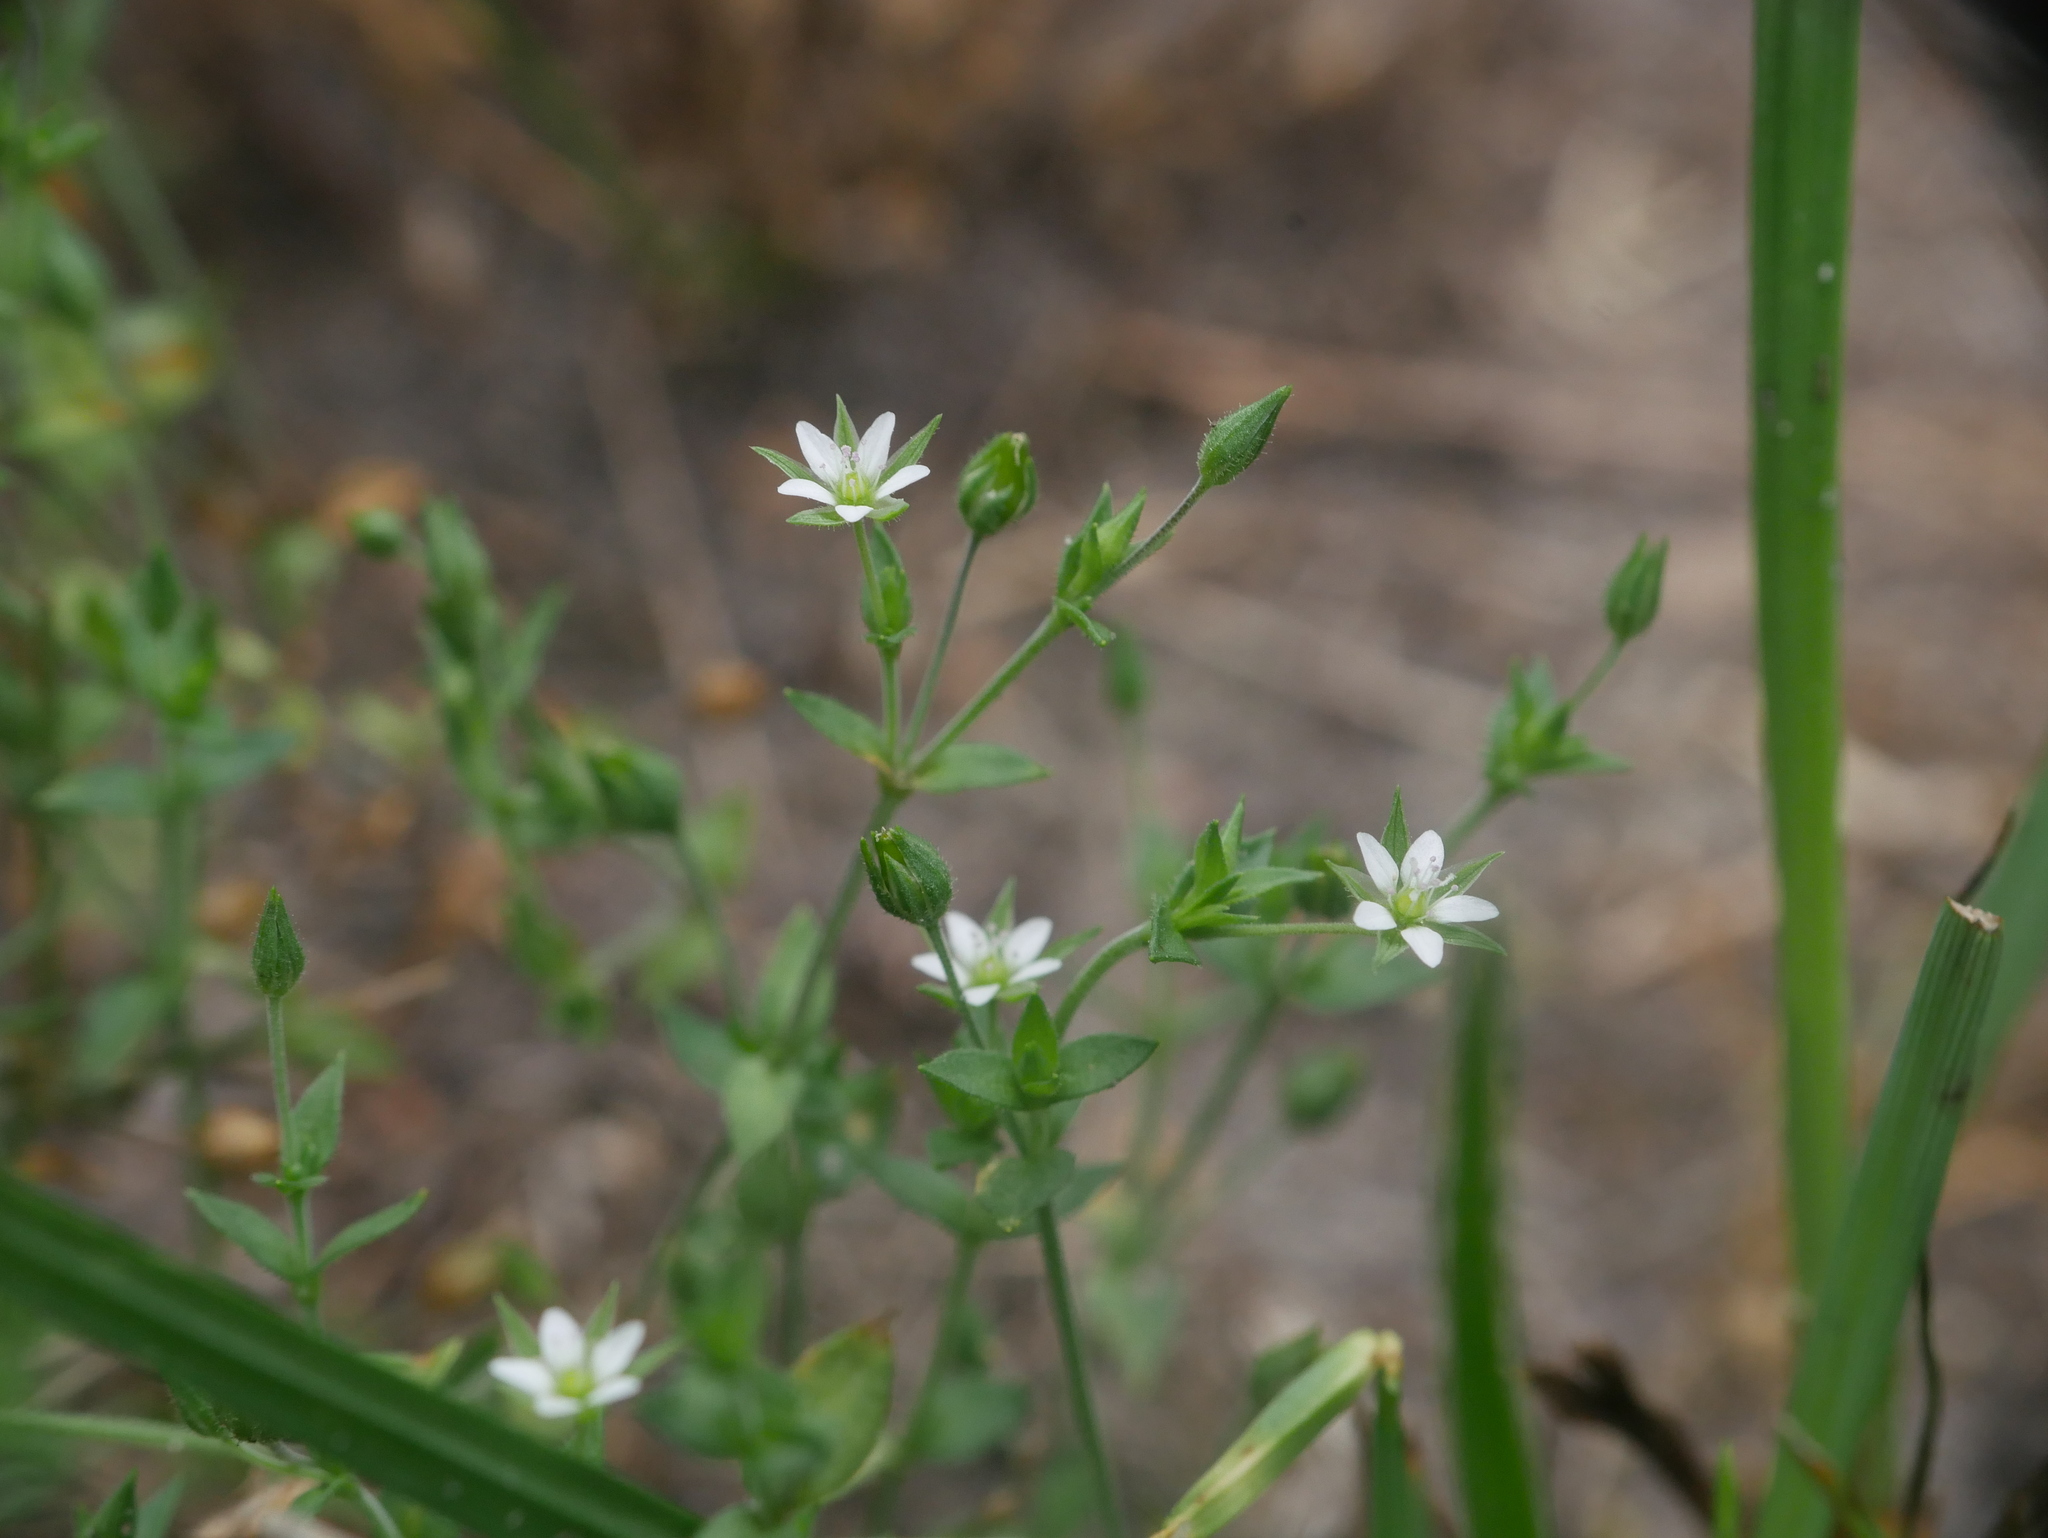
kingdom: Plantae
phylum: Tracheophyta
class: Magnoliopsida
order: Caryophyllales
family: Caryophyllaceae
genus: Arenaria
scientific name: Arenaria serpyllifolia
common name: Thyme-leaved sandwort
